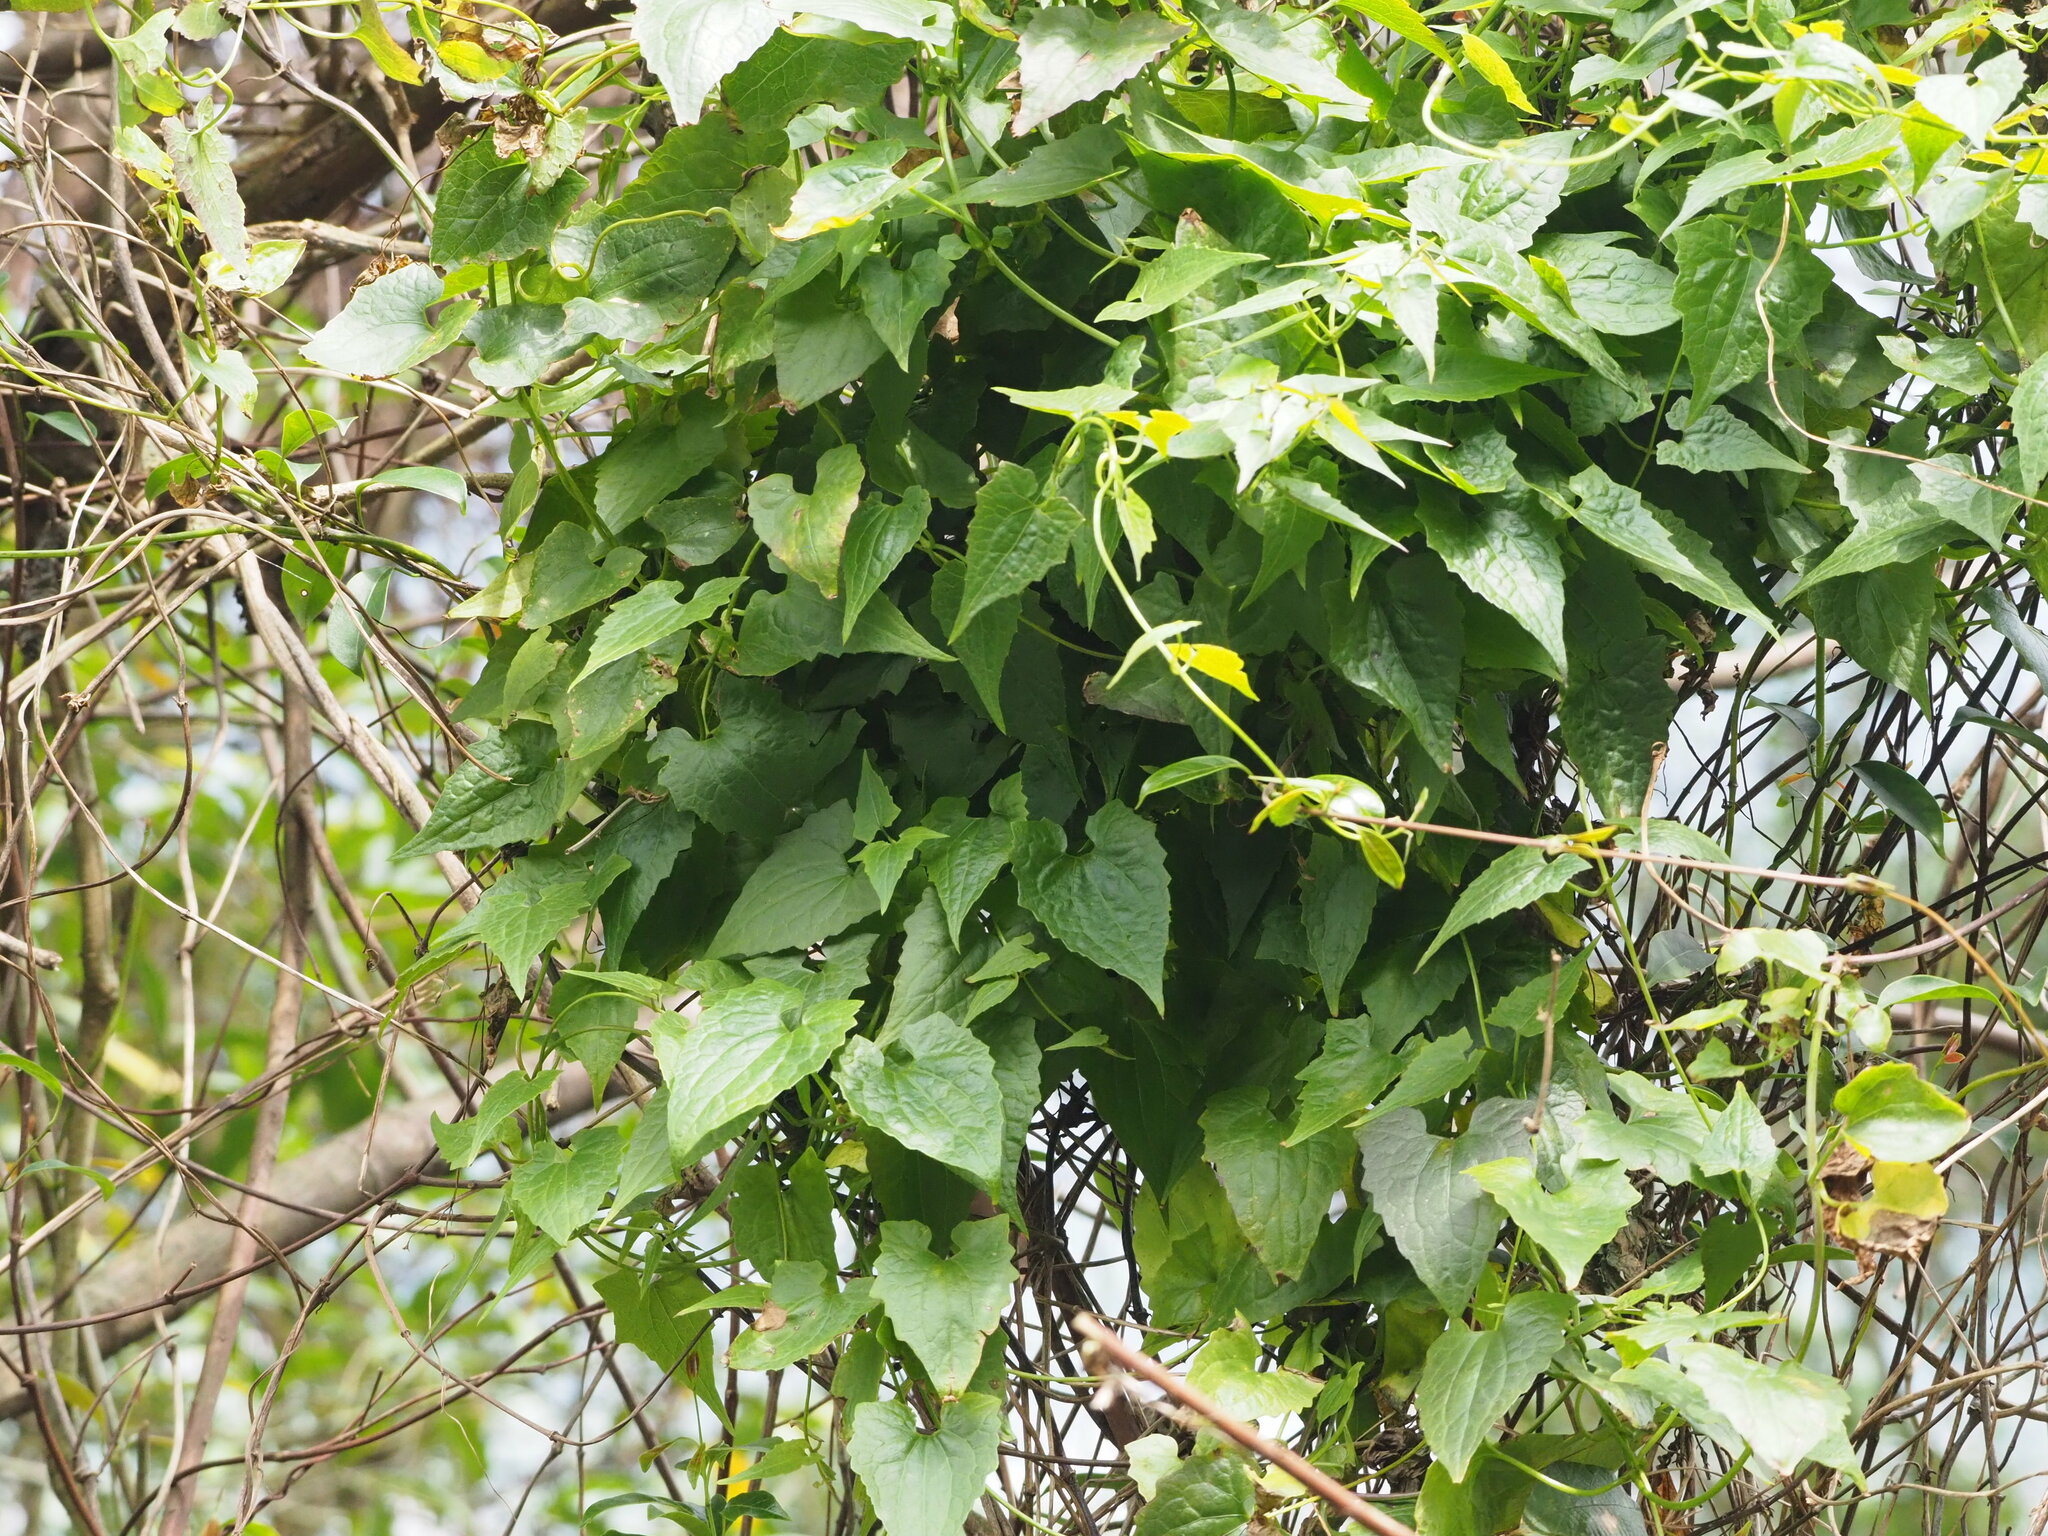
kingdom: Plantae
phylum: Tracheophyta
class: Magnoliopsida
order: Asterales
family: Asteraceae
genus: Mikania
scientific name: Mikania micrantha
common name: Mile-a-minute
